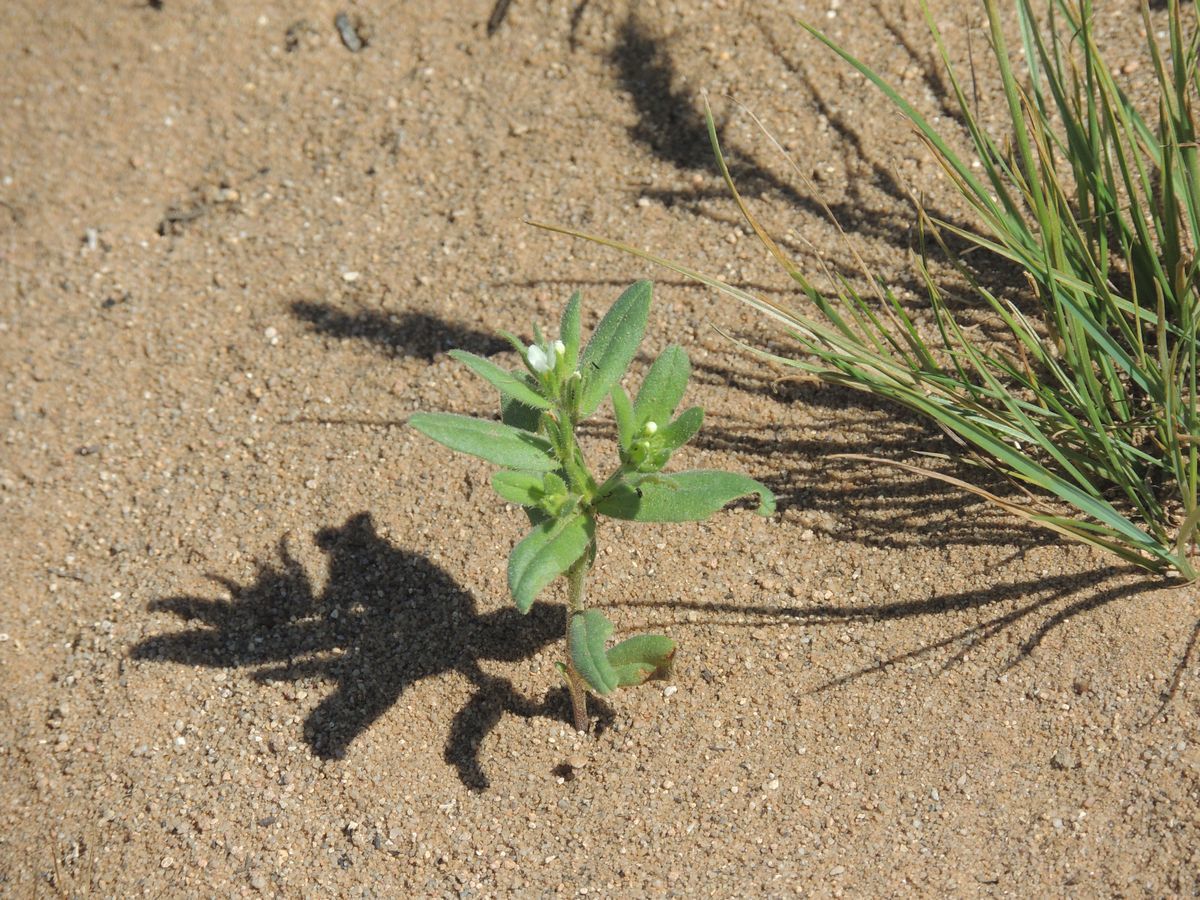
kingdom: Plantae
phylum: Tracheophyta
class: Magnoliopsida
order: Boraginales
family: Boraginaceae
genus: Buglossoides
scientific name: Buglossoides arvensis
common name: Corn gromwell
